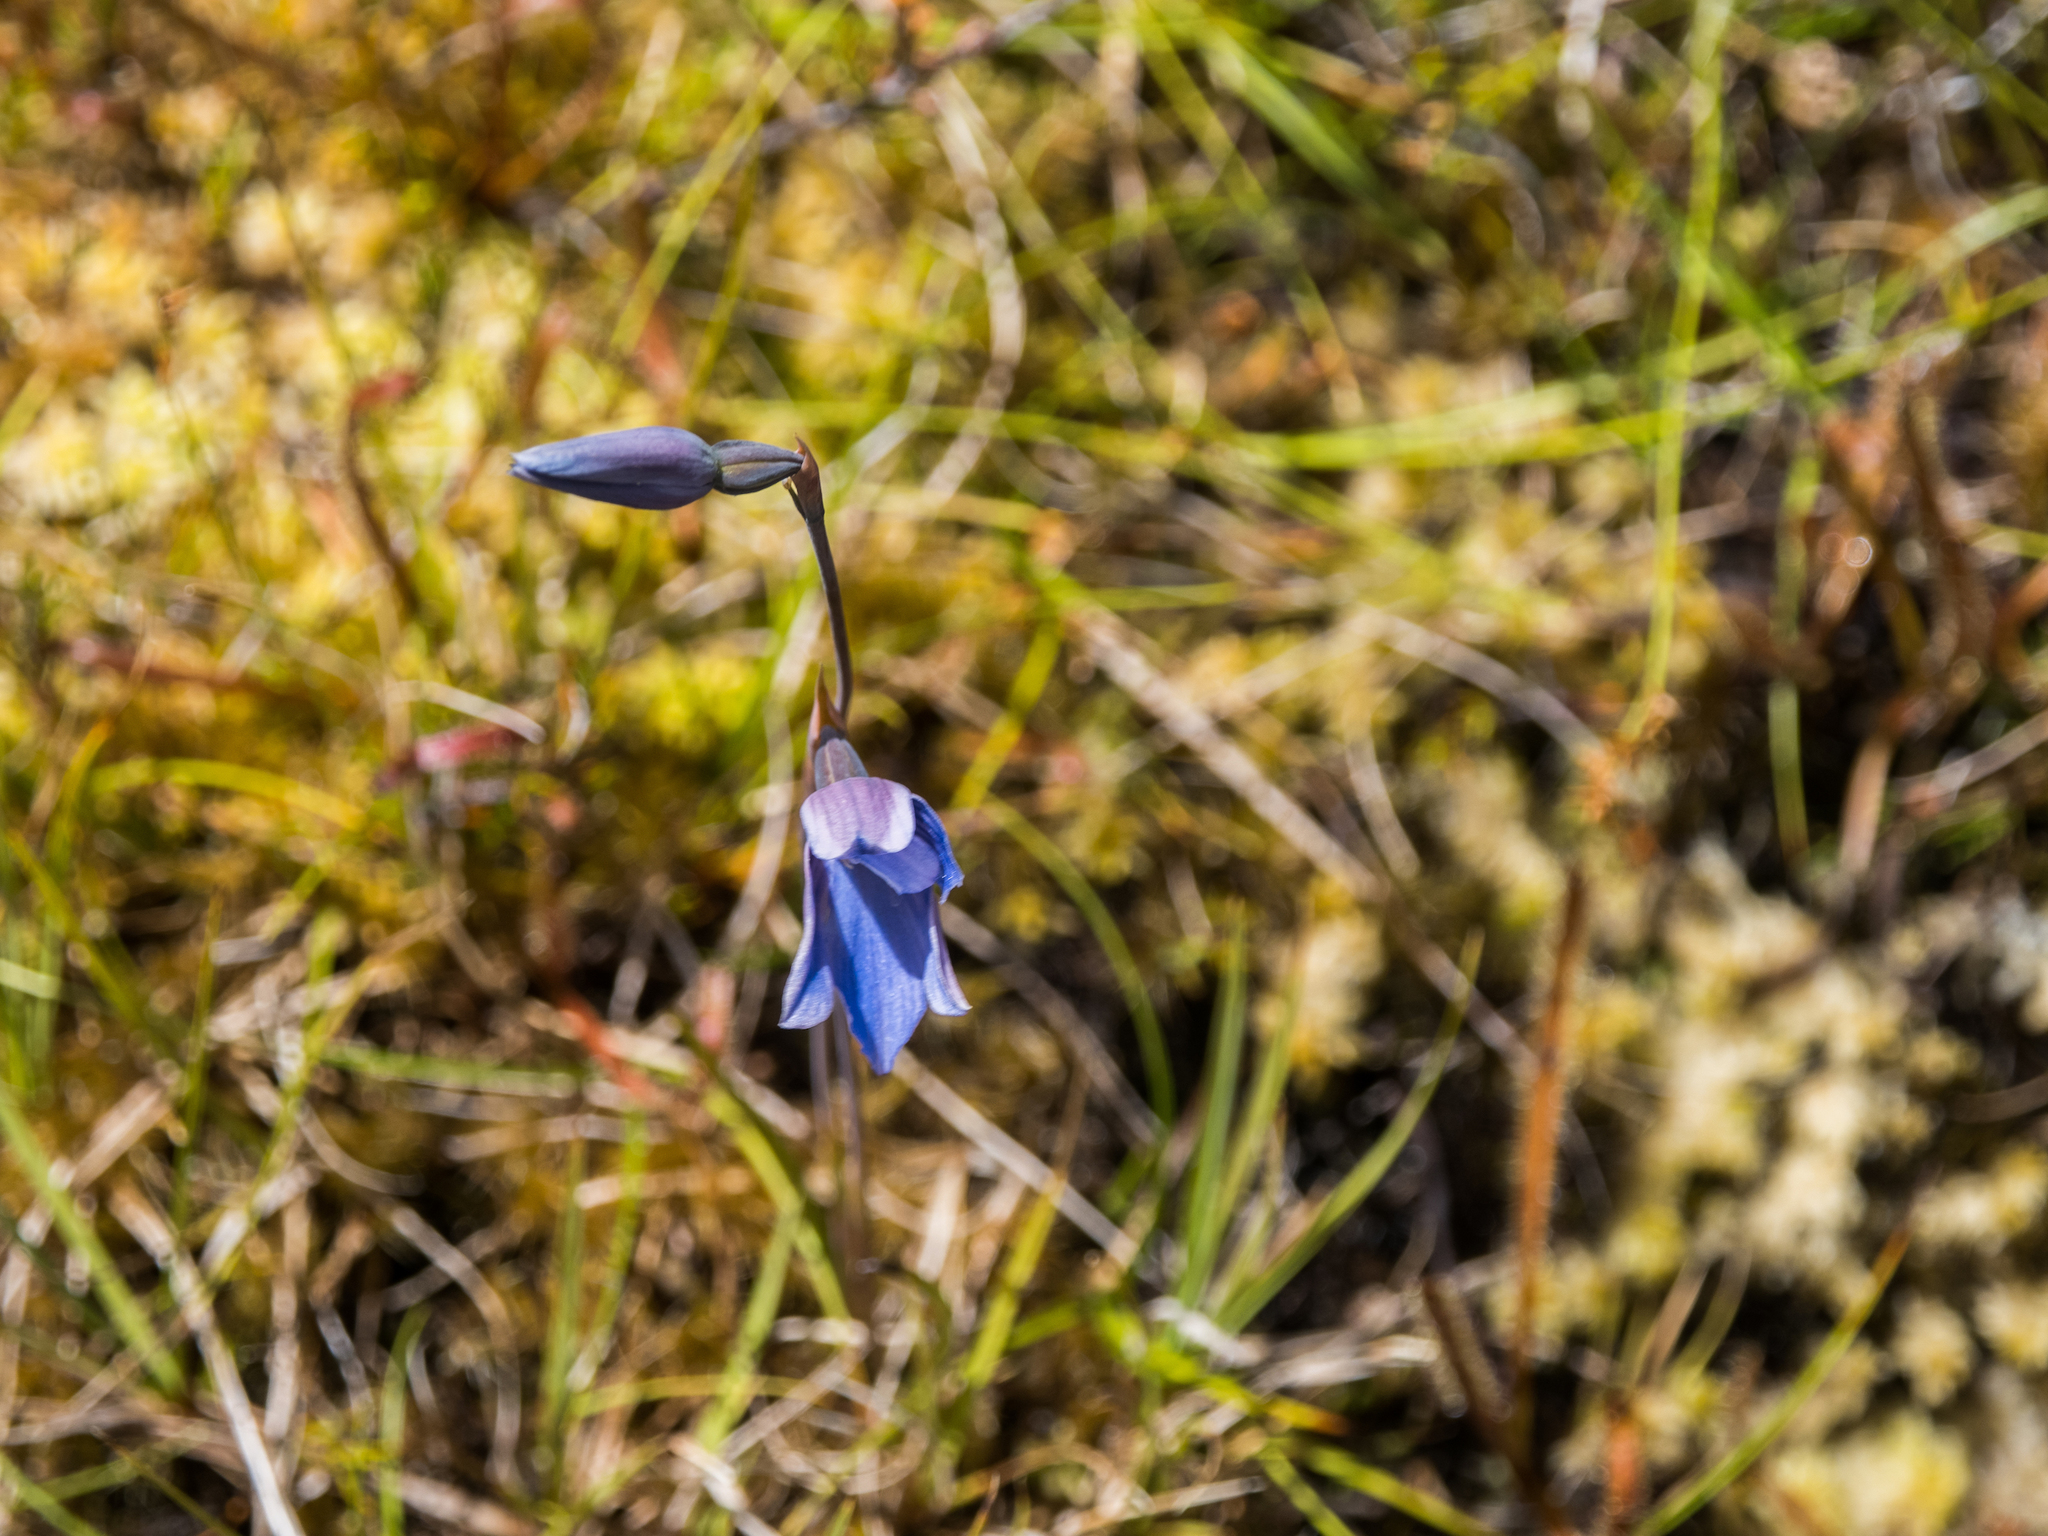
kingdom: Plantae
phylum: Tracheophyta
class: Liliopsida
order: Asparagales
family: Orchidaceae
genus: Thelymitra
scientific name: Thelymitra cyanea
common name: Blue sun-orchid
